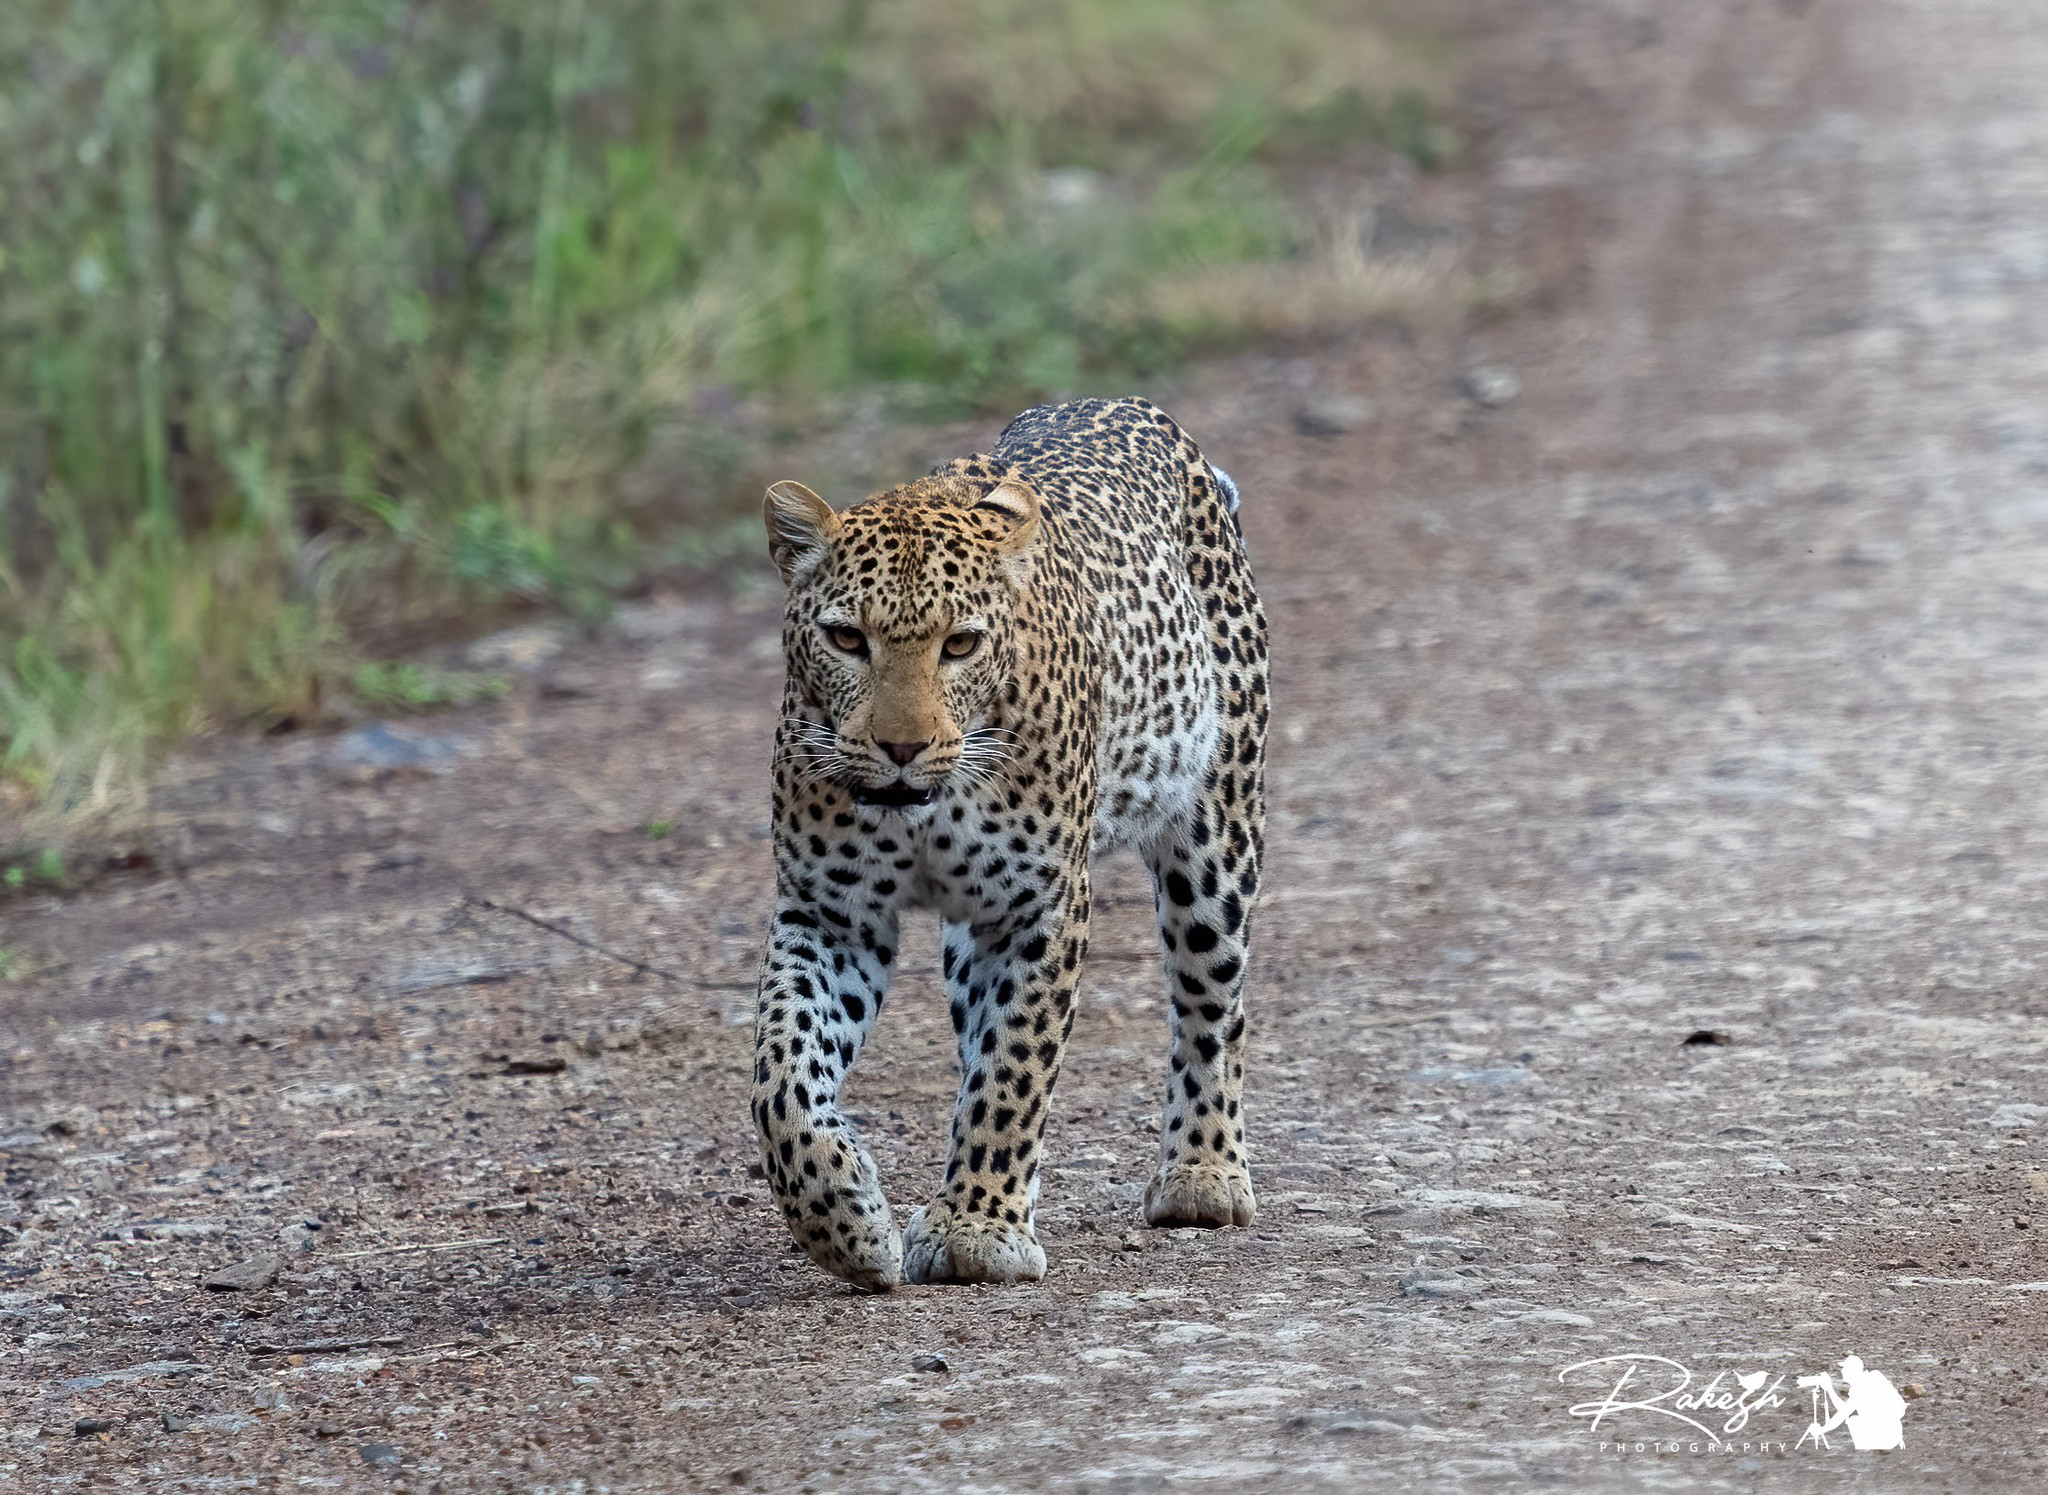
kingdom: Animalia
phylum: Chordata
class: Mammalia
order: Carnivora
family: Felidae
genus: Panthera
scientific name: Panthera pardus
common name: Leopard
